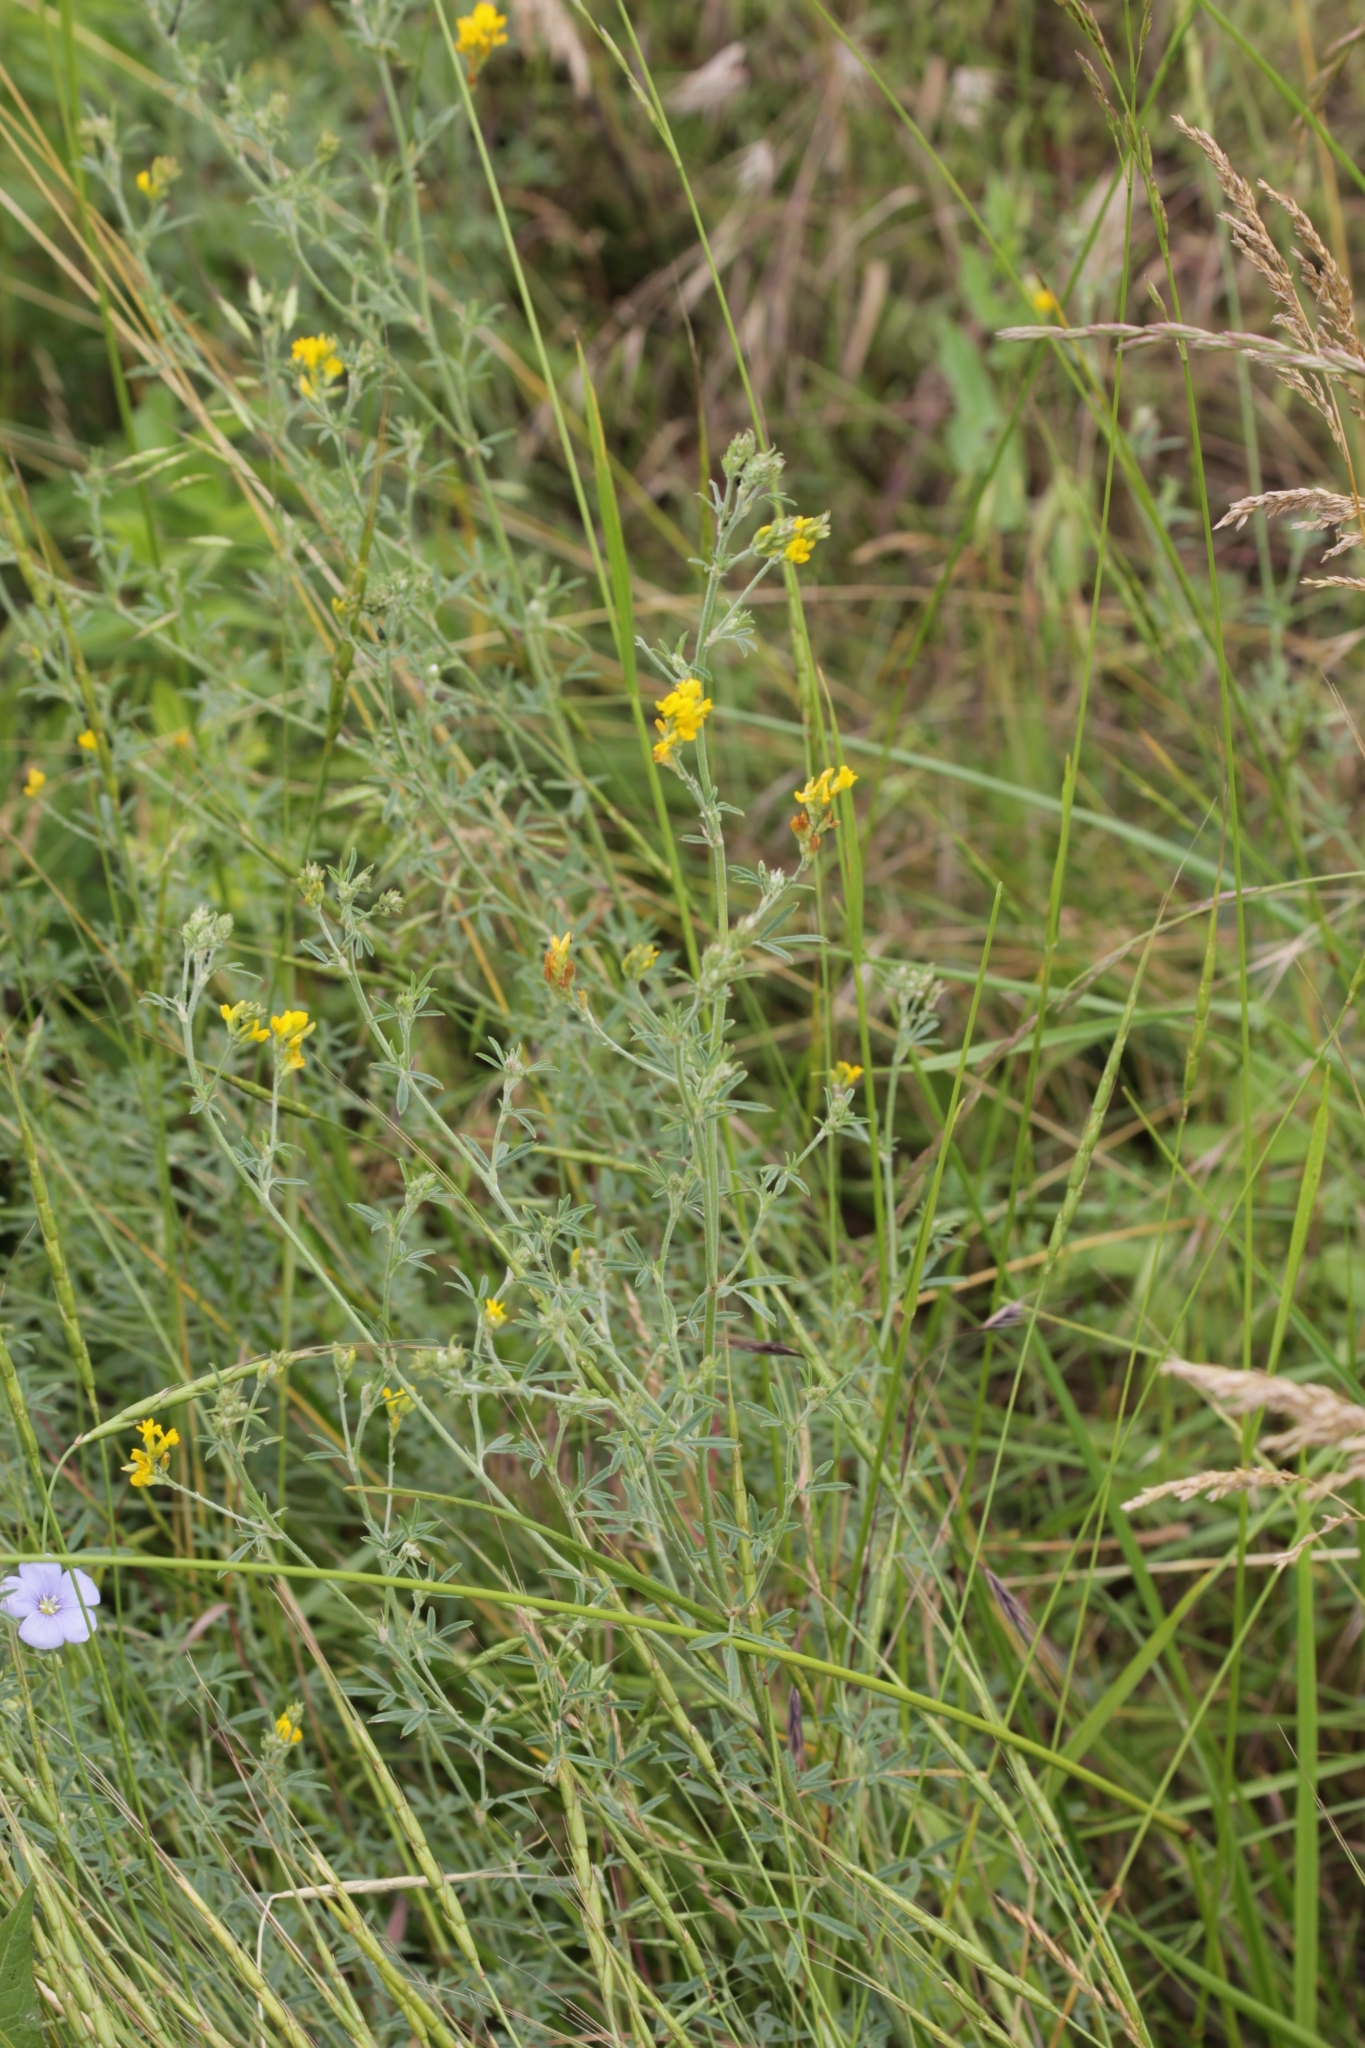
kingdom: Plantae
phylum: Tracheophyta
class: Magnoliopsida
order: Fabales
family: Fabaceae
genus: Medicago
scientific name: Medicago falcata
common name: Sickle medick
